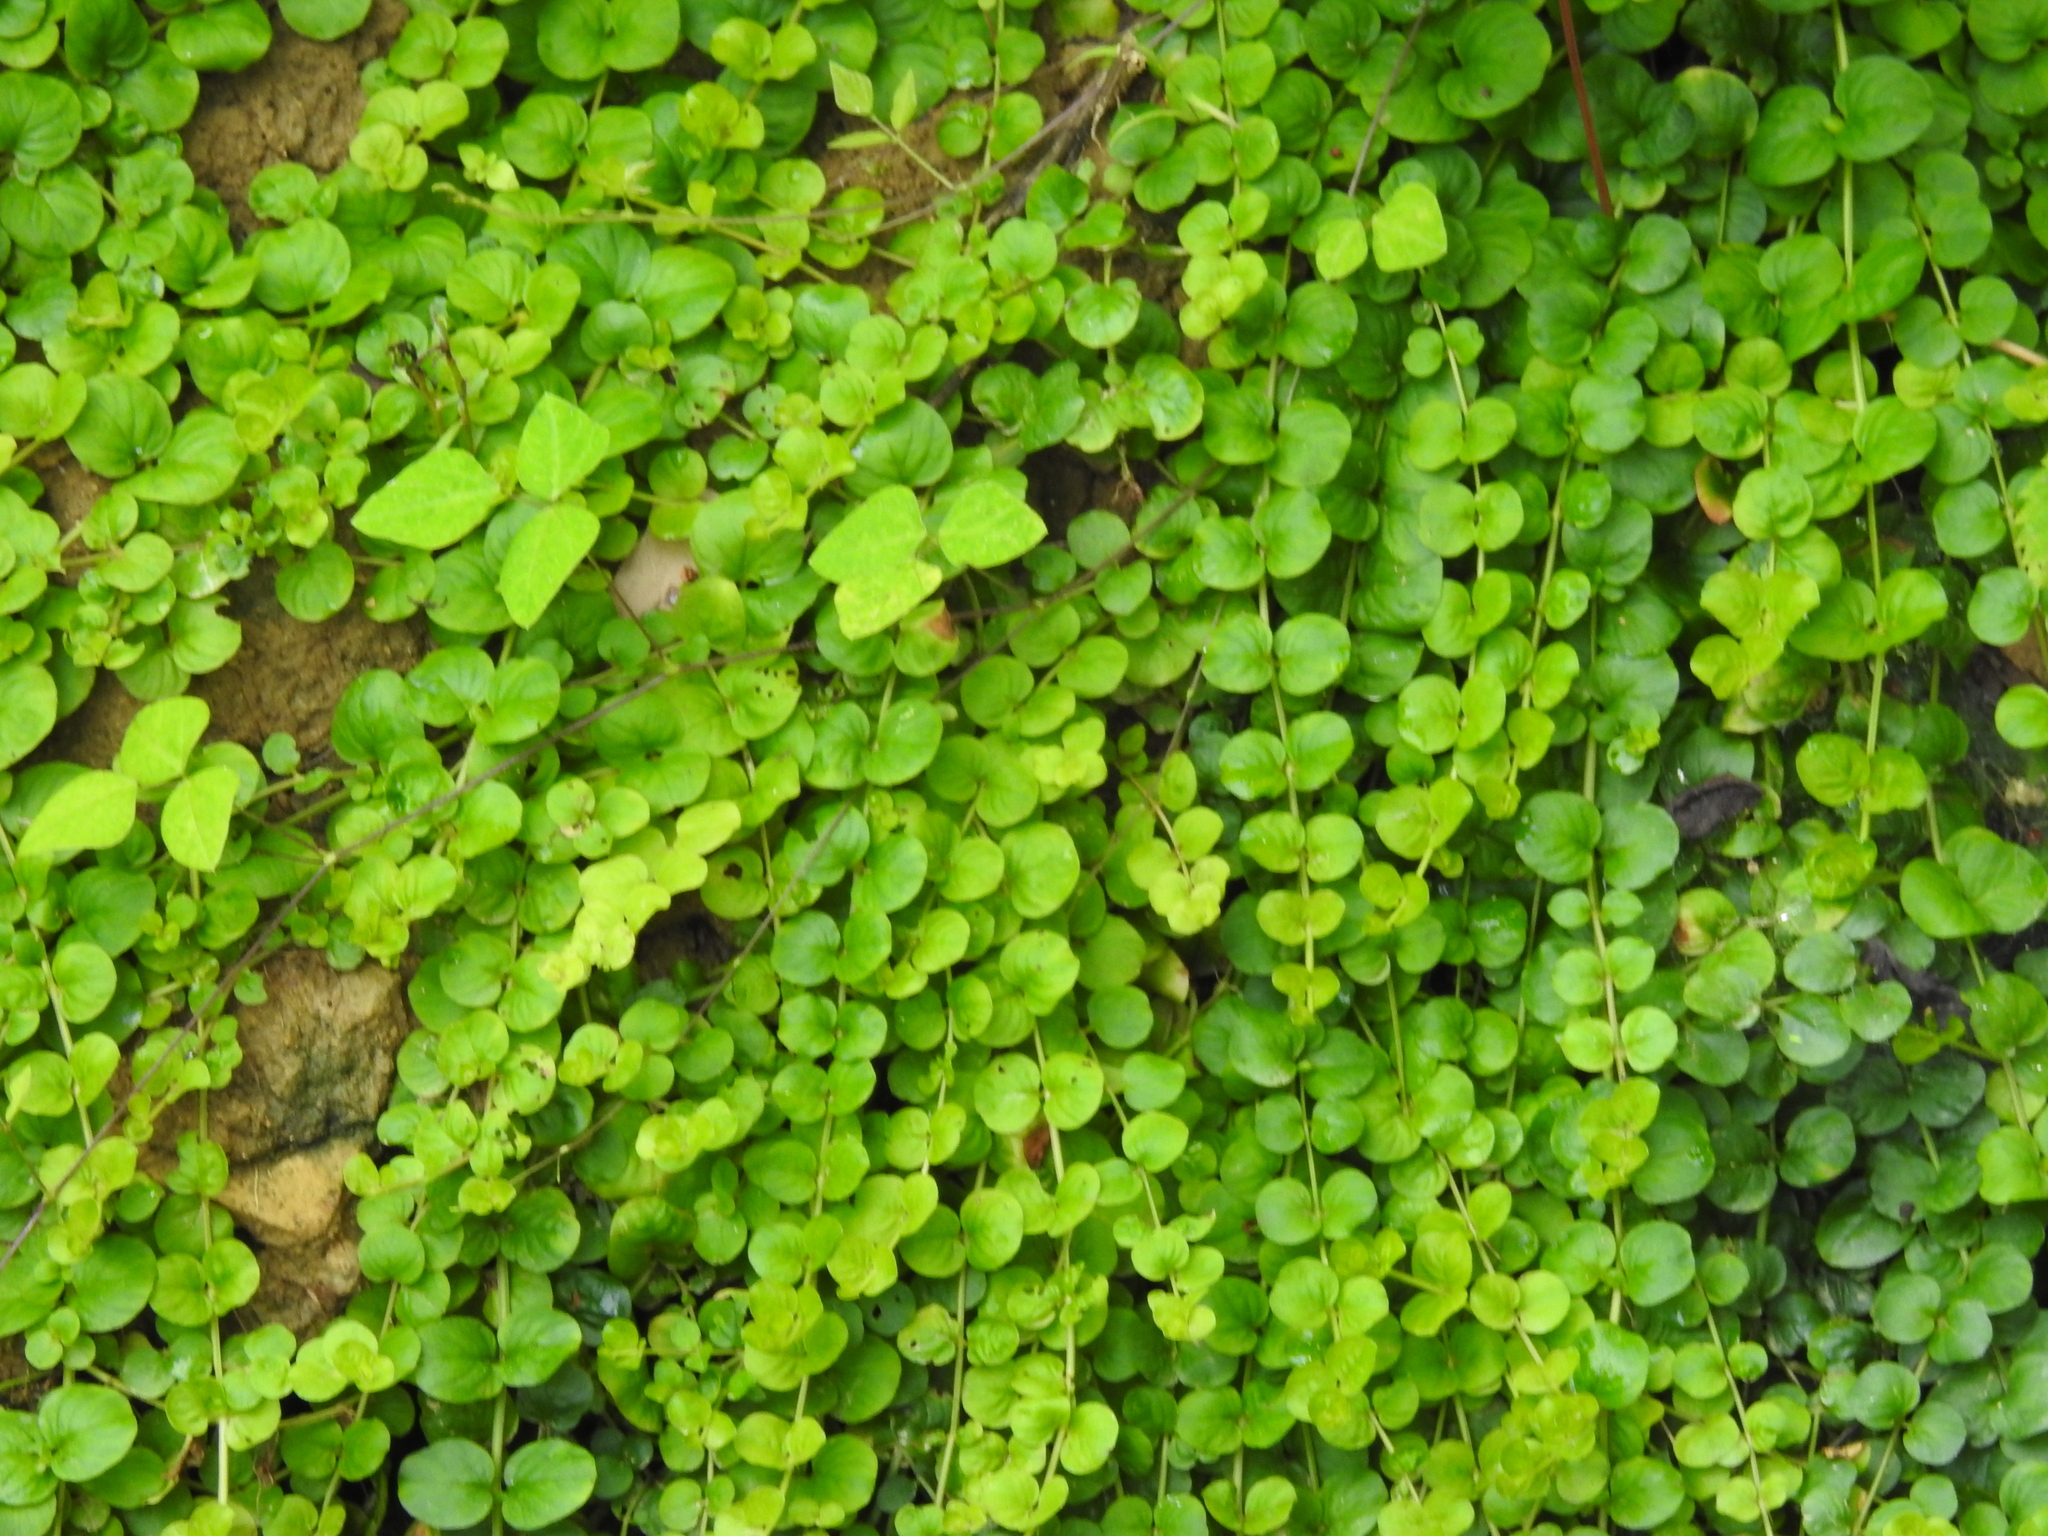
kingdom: Plantae
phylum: Tracheophyta
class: Magnoliopsida
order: Ericales
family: Primulaceae
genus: Lysimachia
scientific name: Lysimachia nummularia
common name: Moneywort
